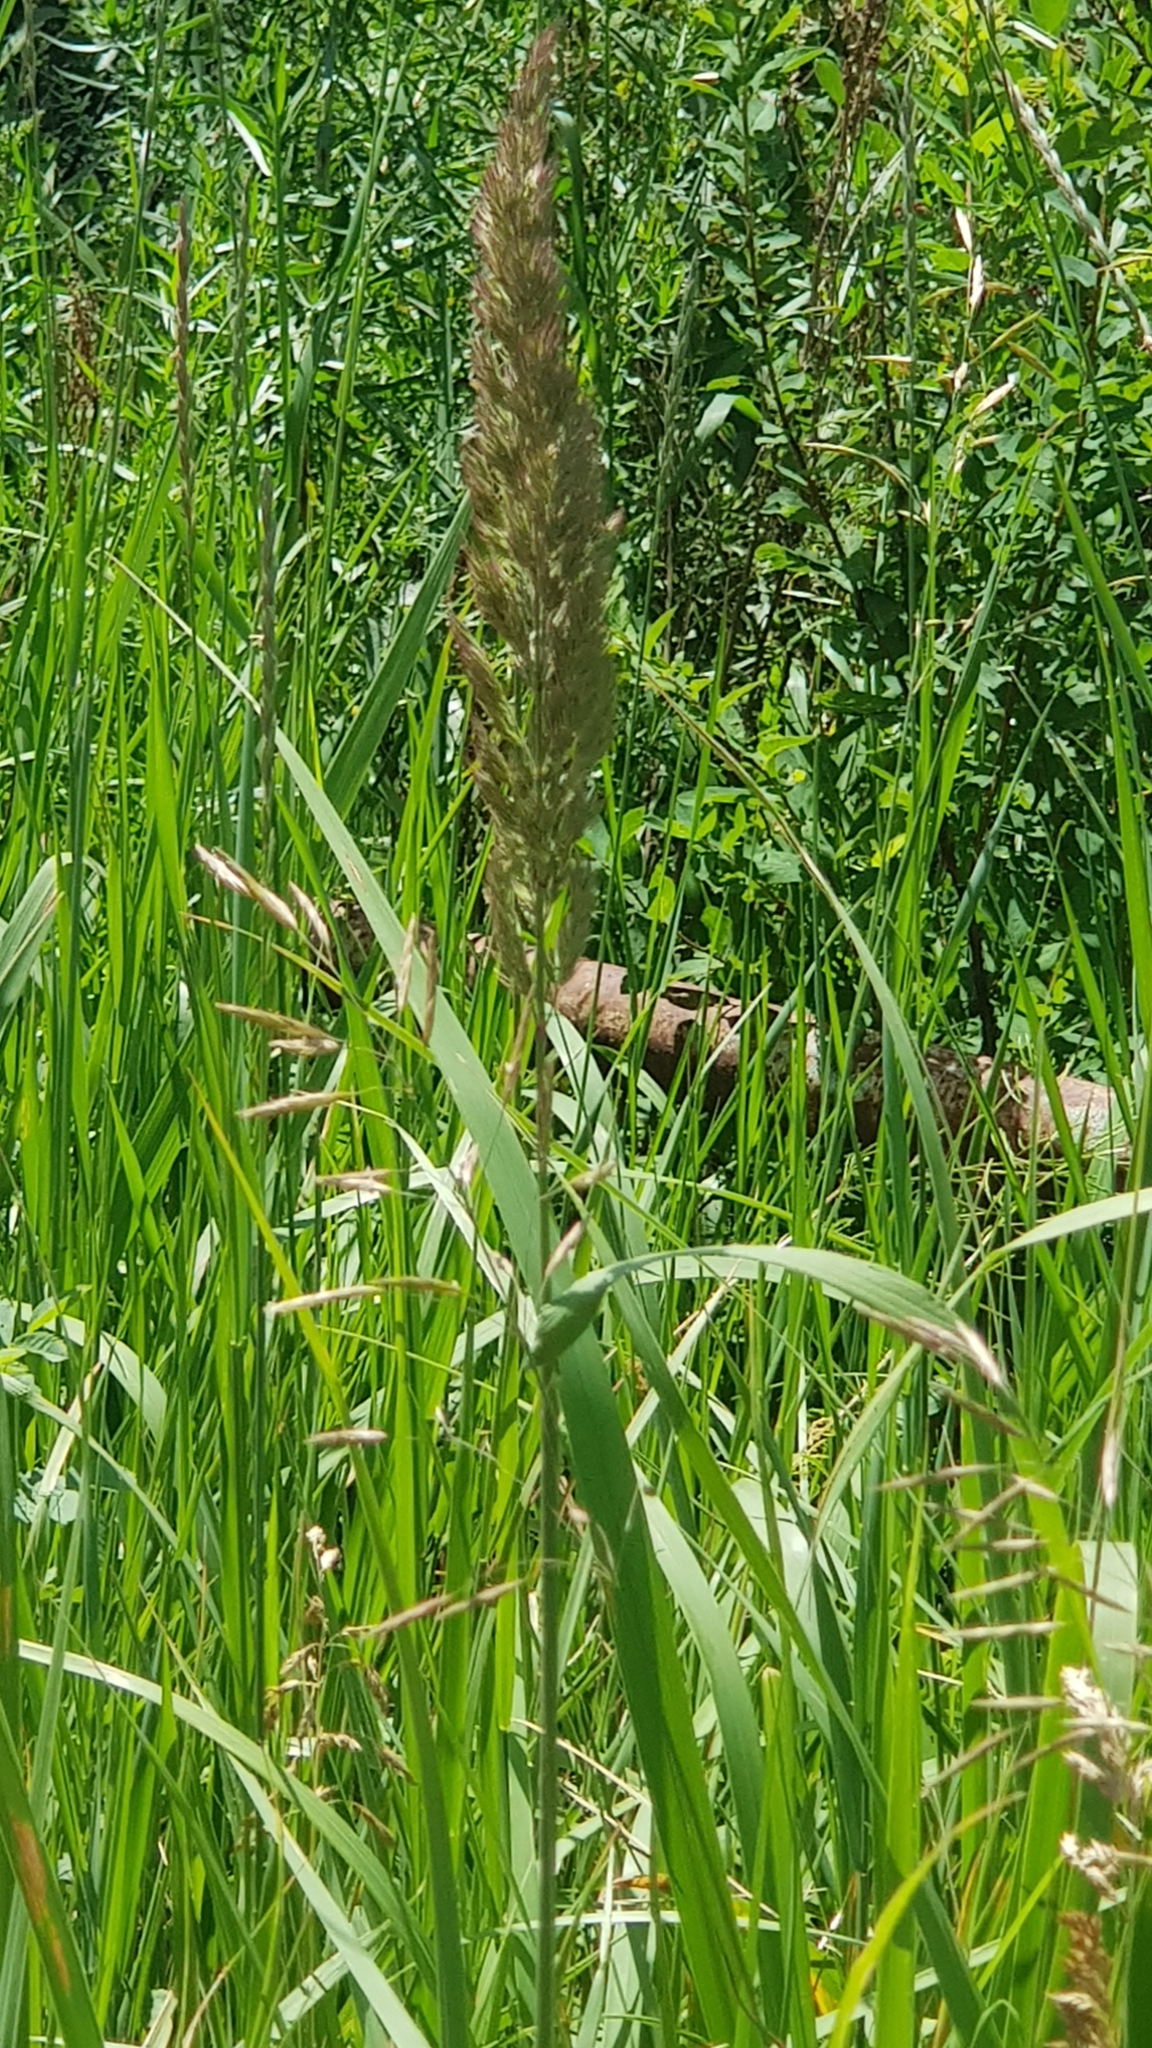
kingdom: Plantae
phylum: Tracheophyta
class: Liliopsida
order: Poales
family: Poaceae
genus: Calamagrostis
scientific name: Calamagrostis epigejos
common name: Wood small-reed
